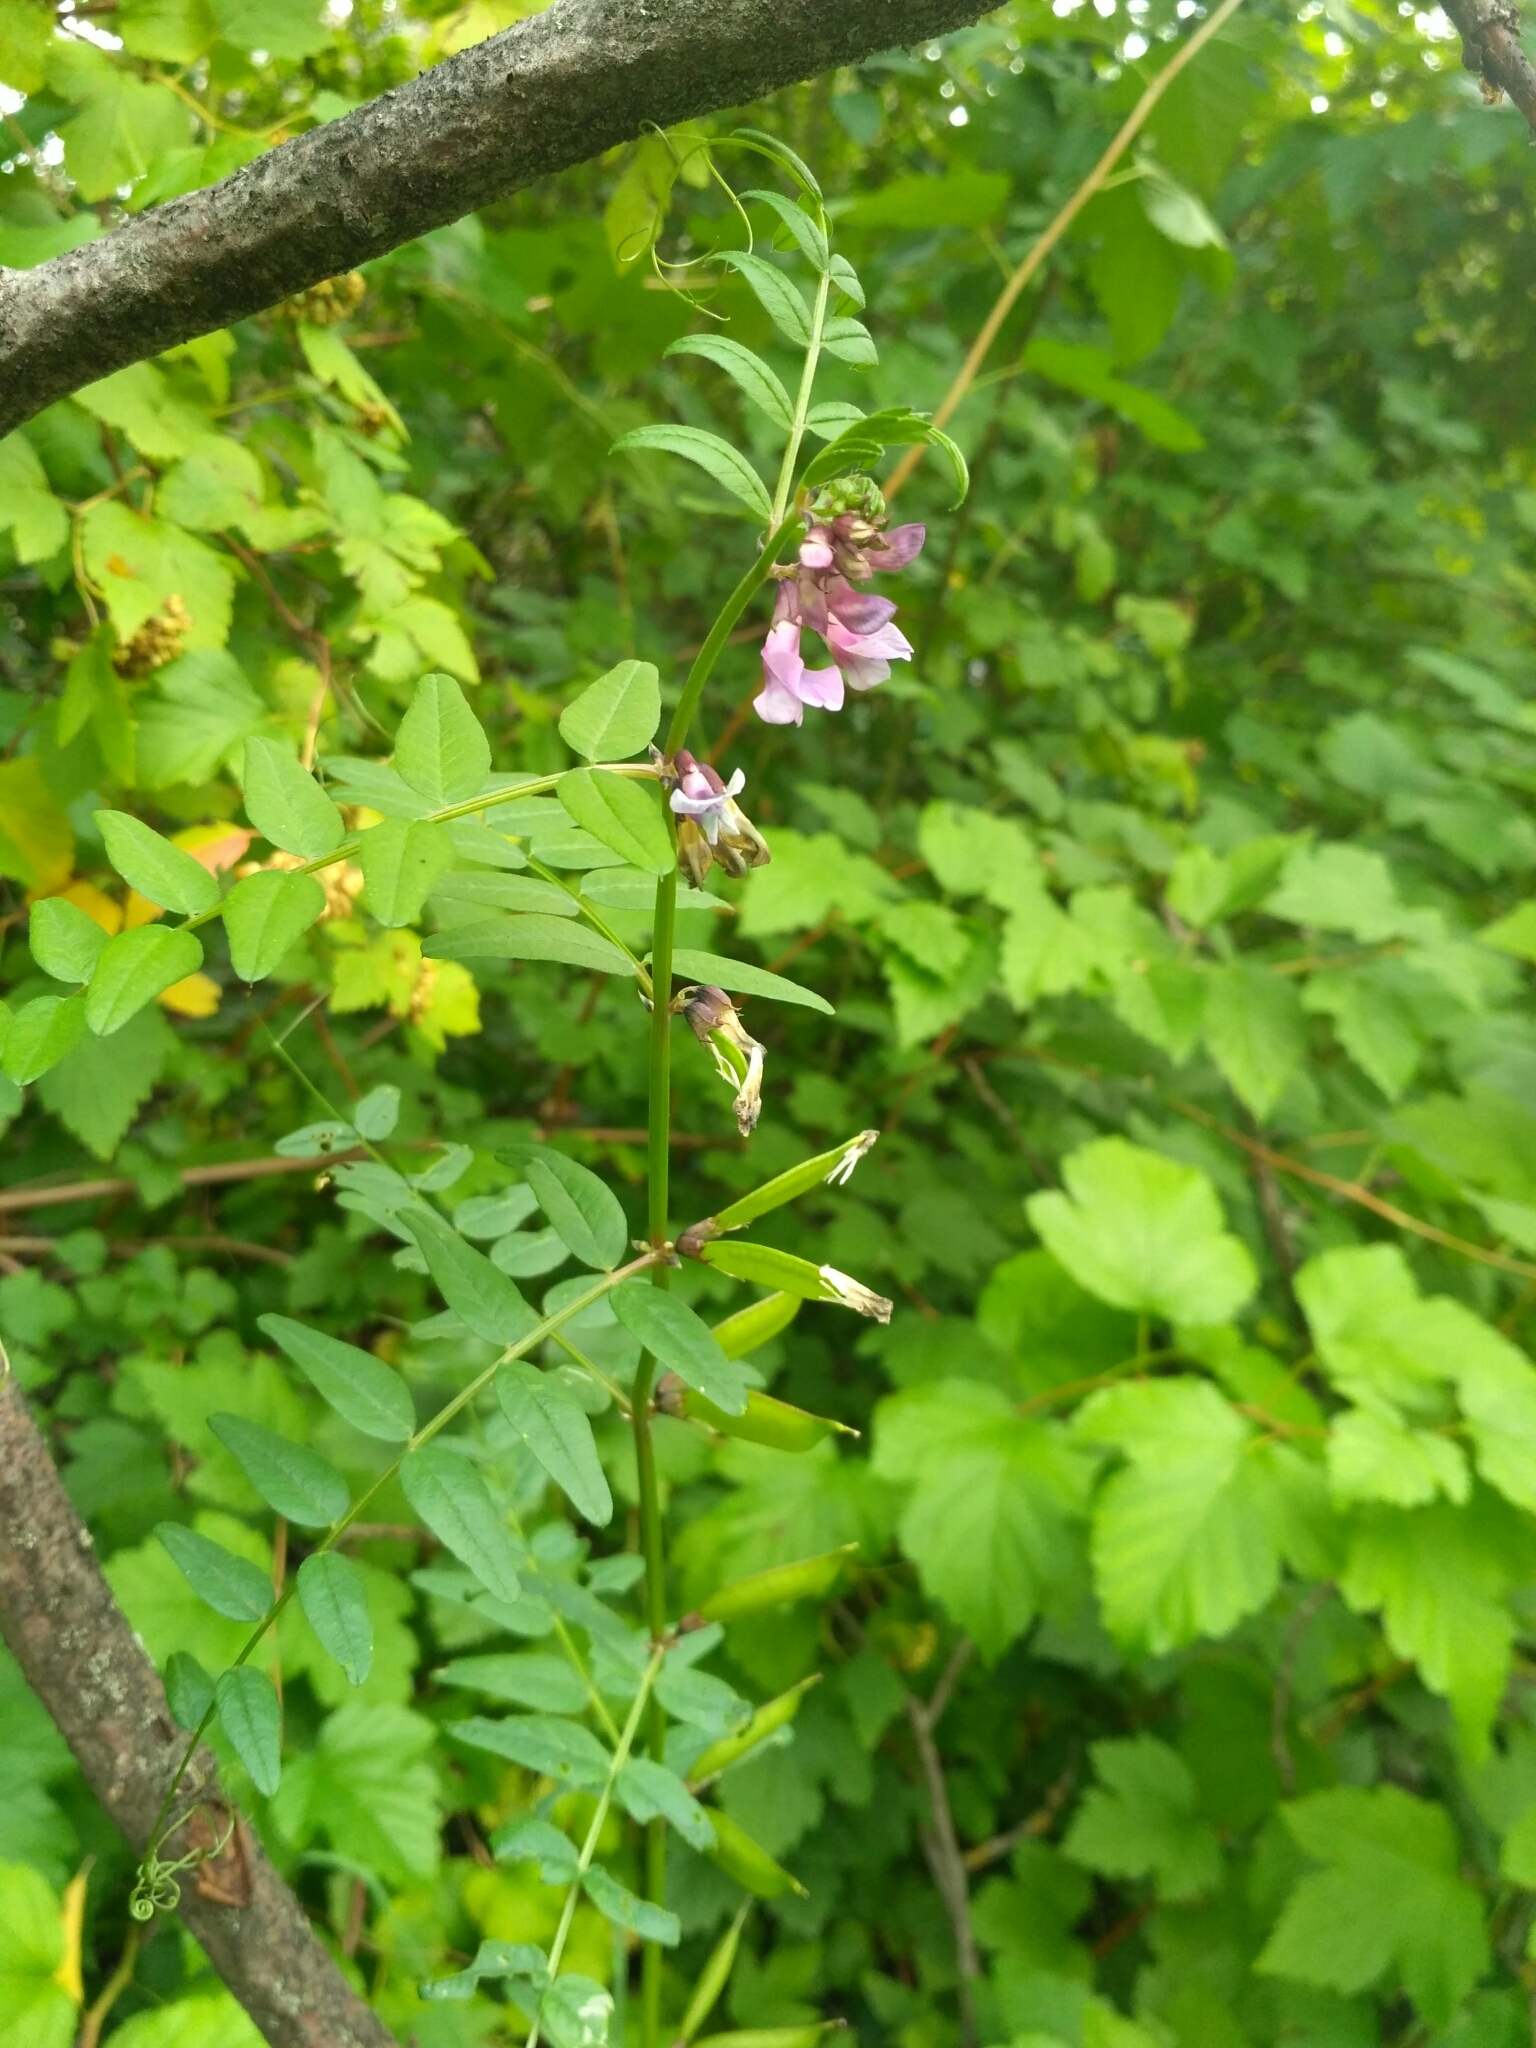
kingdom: Plantae
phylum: Tracheophyta
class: Magnoliopsida
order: Fabales
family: Fabaceae
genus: Vicia
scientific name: Vicia sepium
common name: Bush vetch
